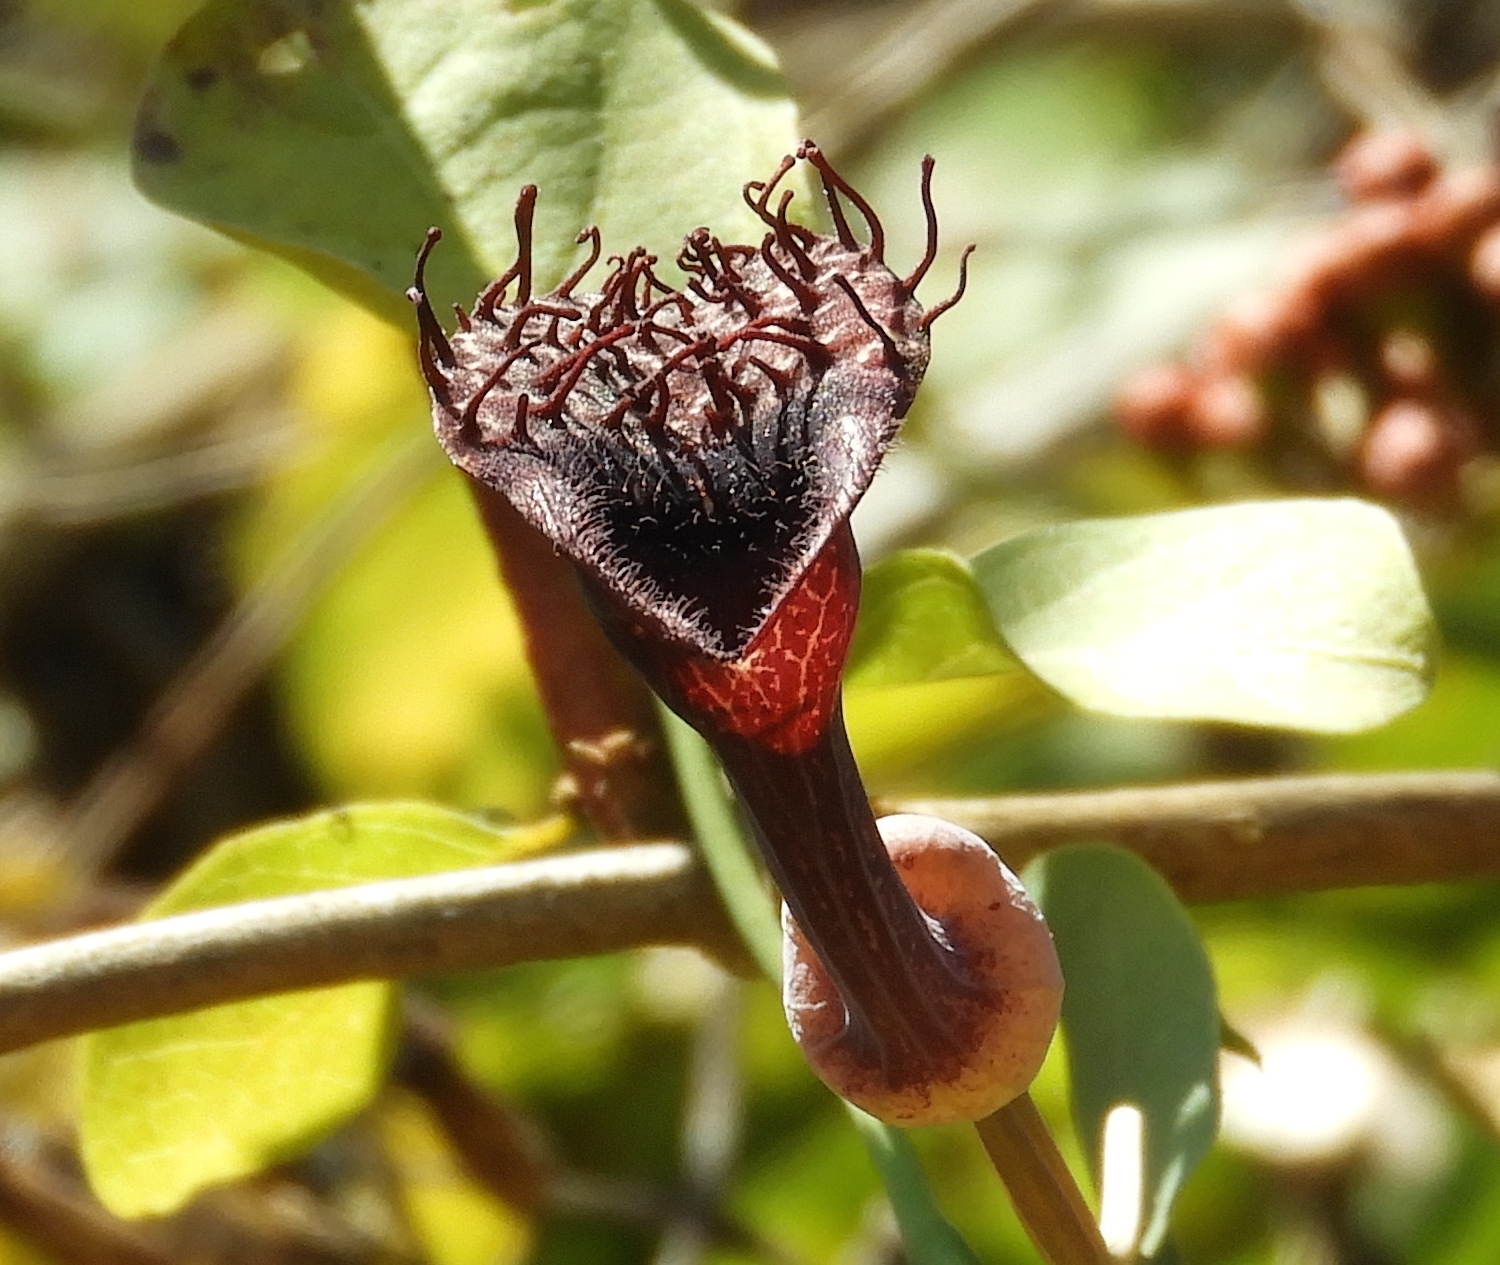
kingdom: Plantae
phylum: Tracheophyta
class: Magnoliopsida
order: Piperales
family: Aristolochiaceae
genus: Aristolochia
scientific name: Aristolochia taliscana
